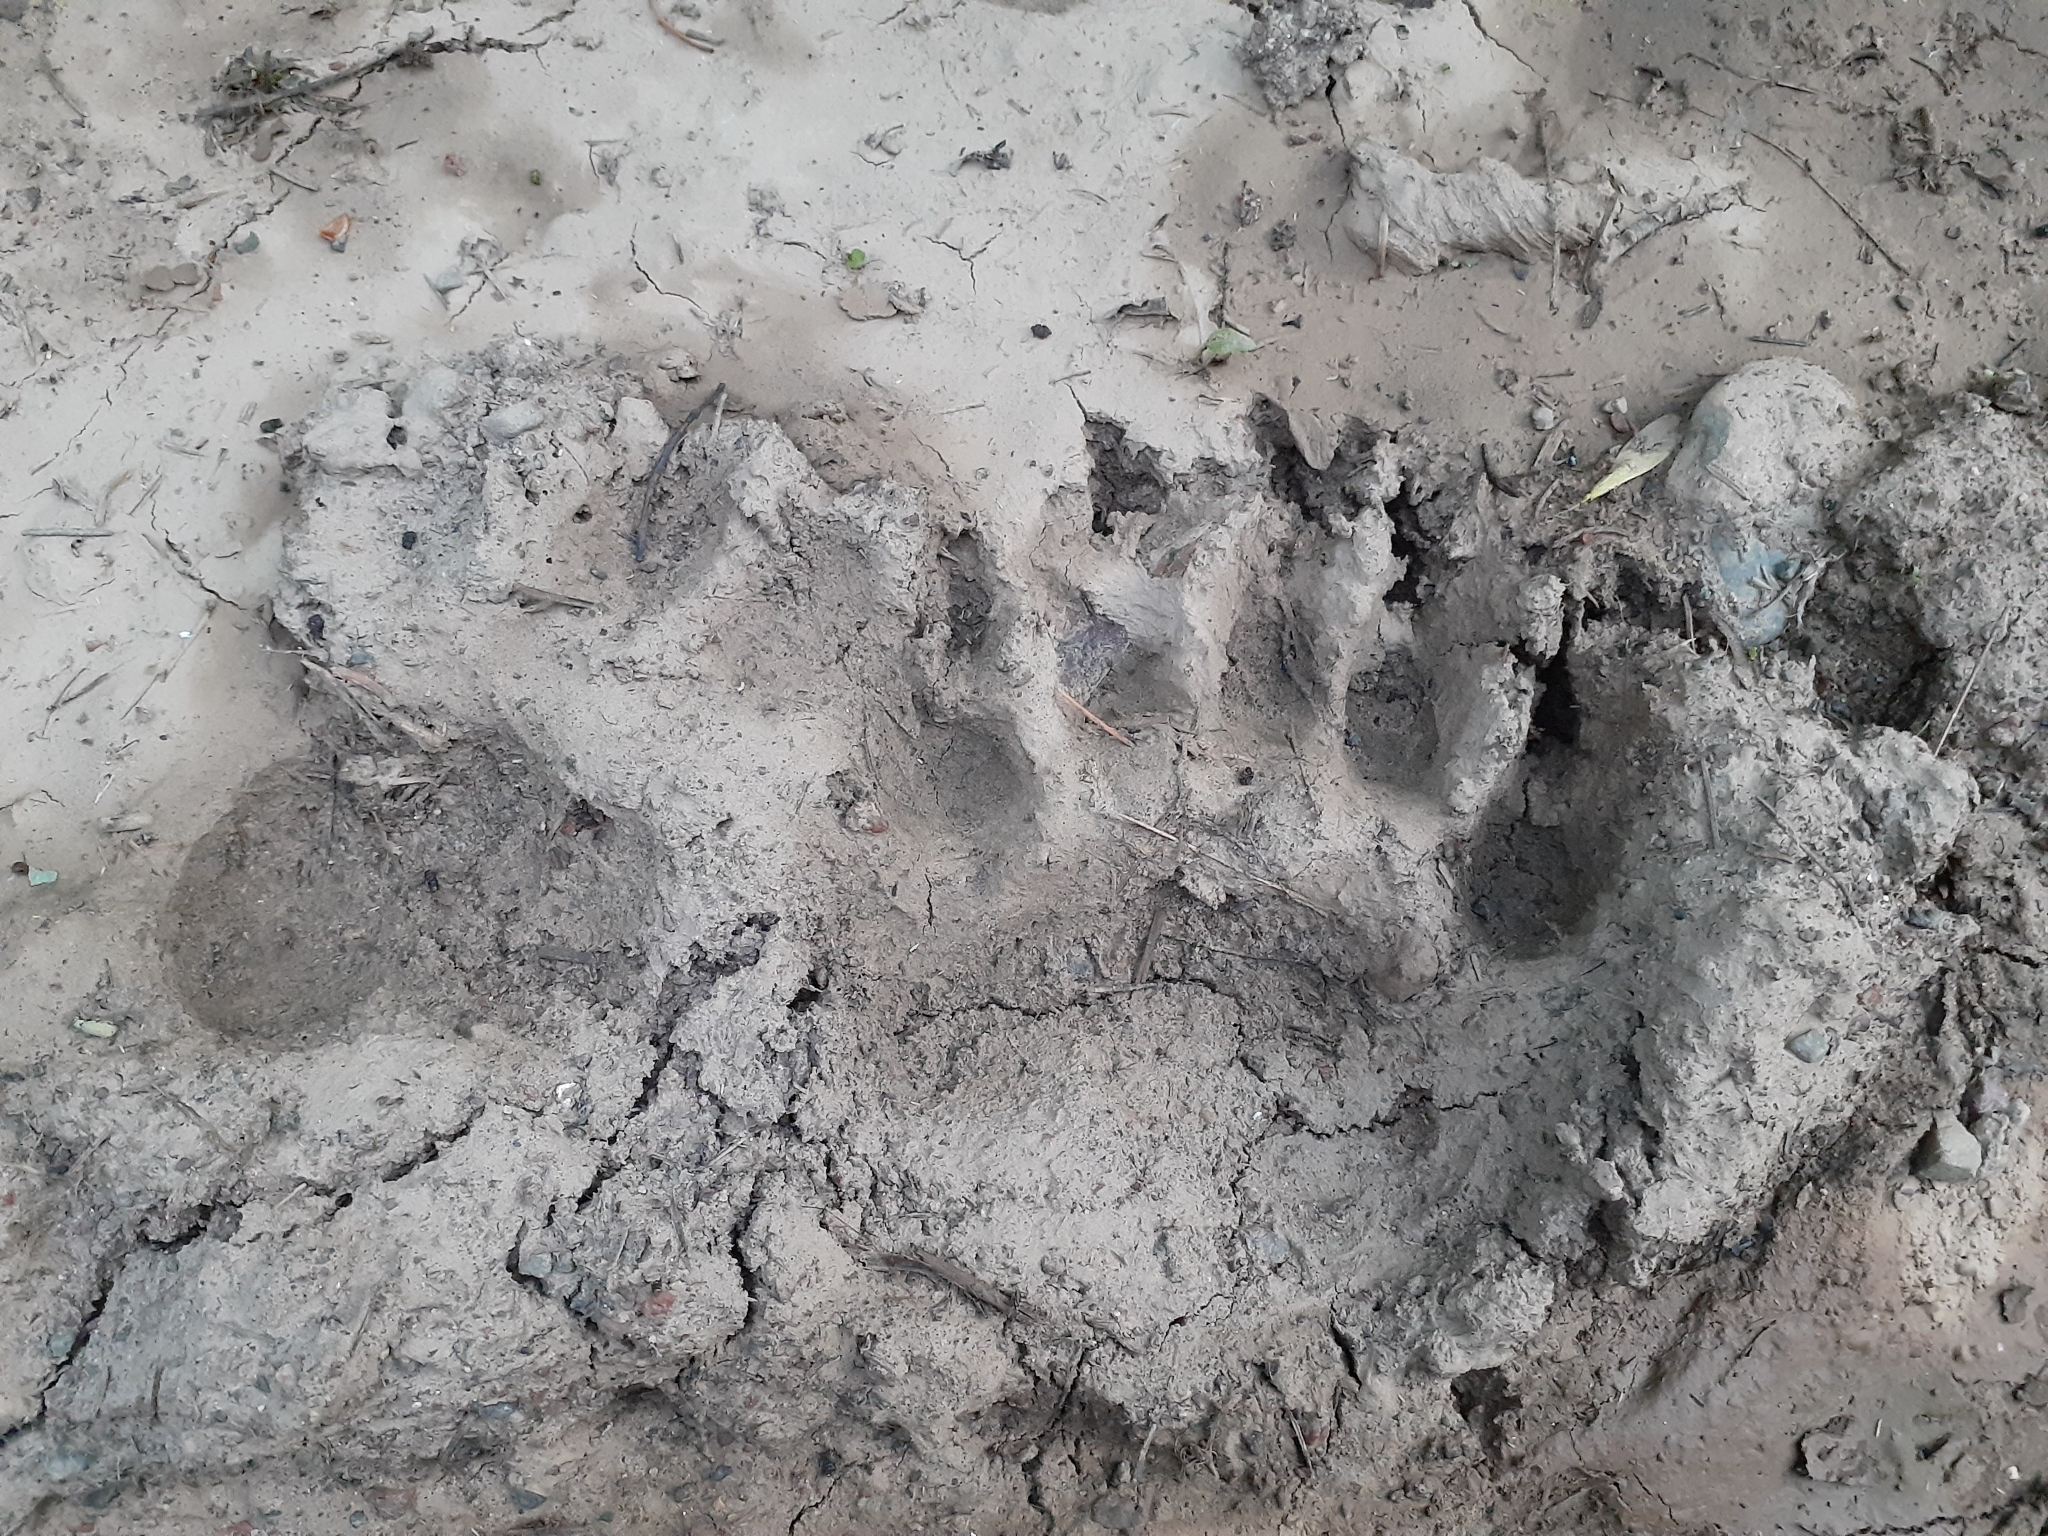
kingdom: Animalia
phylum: Chordata
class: Mammalia
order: Carnivora
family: Ursidae
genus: Ursus
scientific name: Ursus americanus
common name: American black bear
